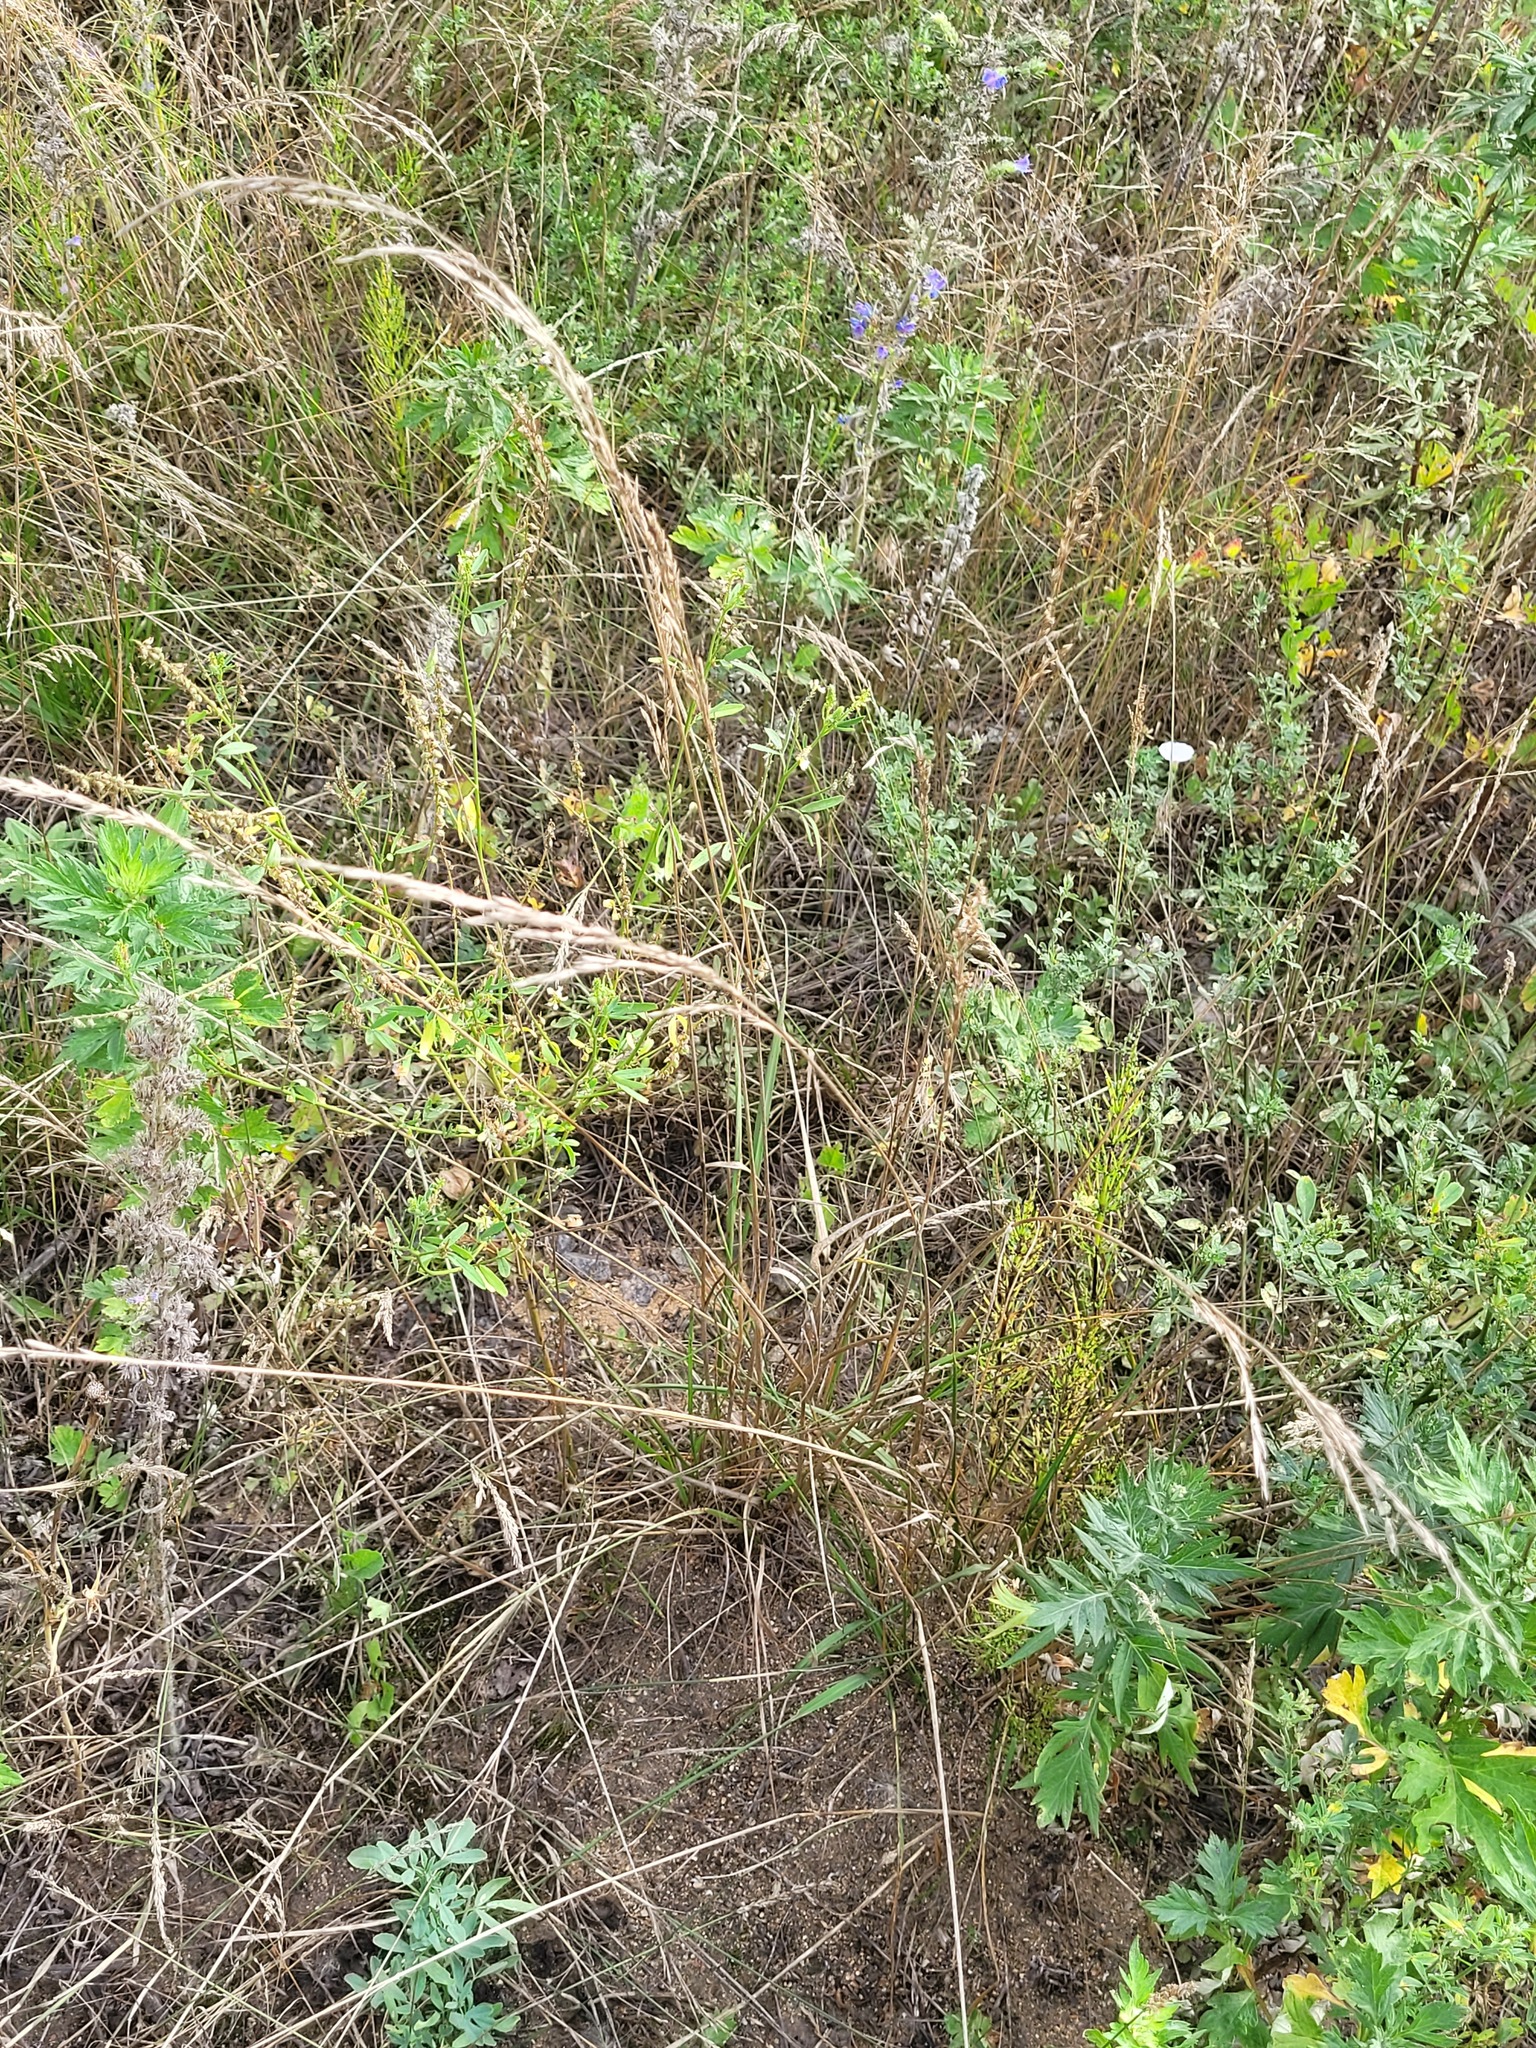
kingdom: Plantae
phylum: Tracheophyta
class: Liliopsida
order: Poales
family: Poaceae
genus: Lolium
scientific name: Lolium pratense
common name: Dover grass
